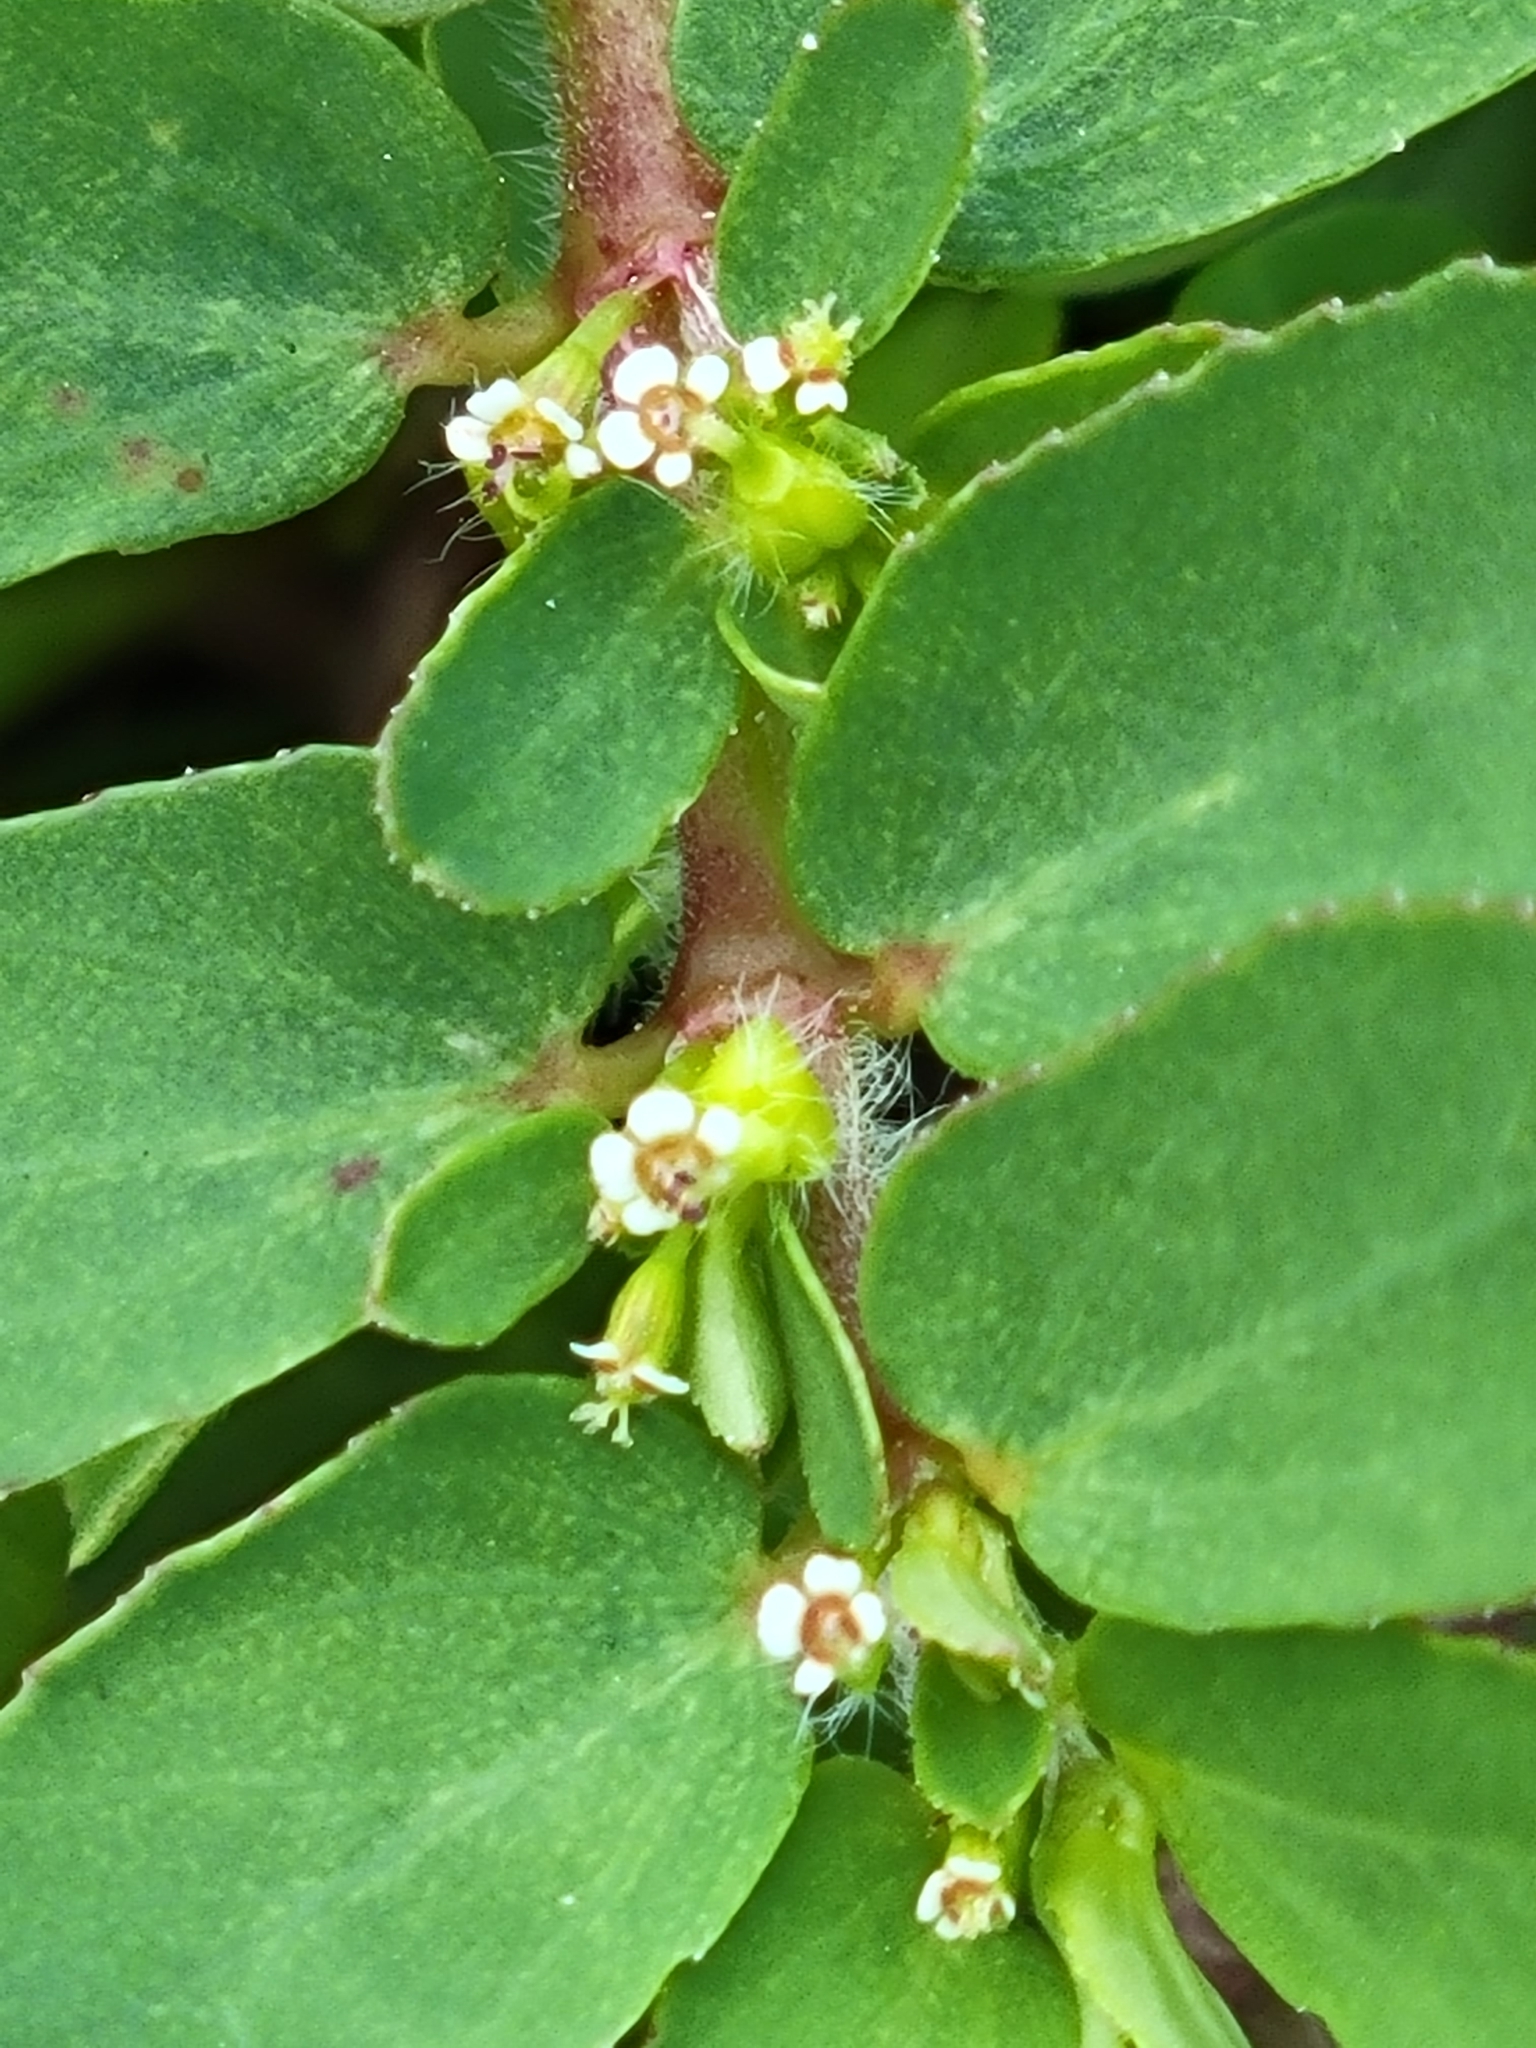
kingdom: Plantae
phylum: Tracheophyta
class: Magnoliopsida
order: Malpighiales
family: Euphorbiaceae
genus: Euphorbia
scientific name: Euphorbia mendezii
